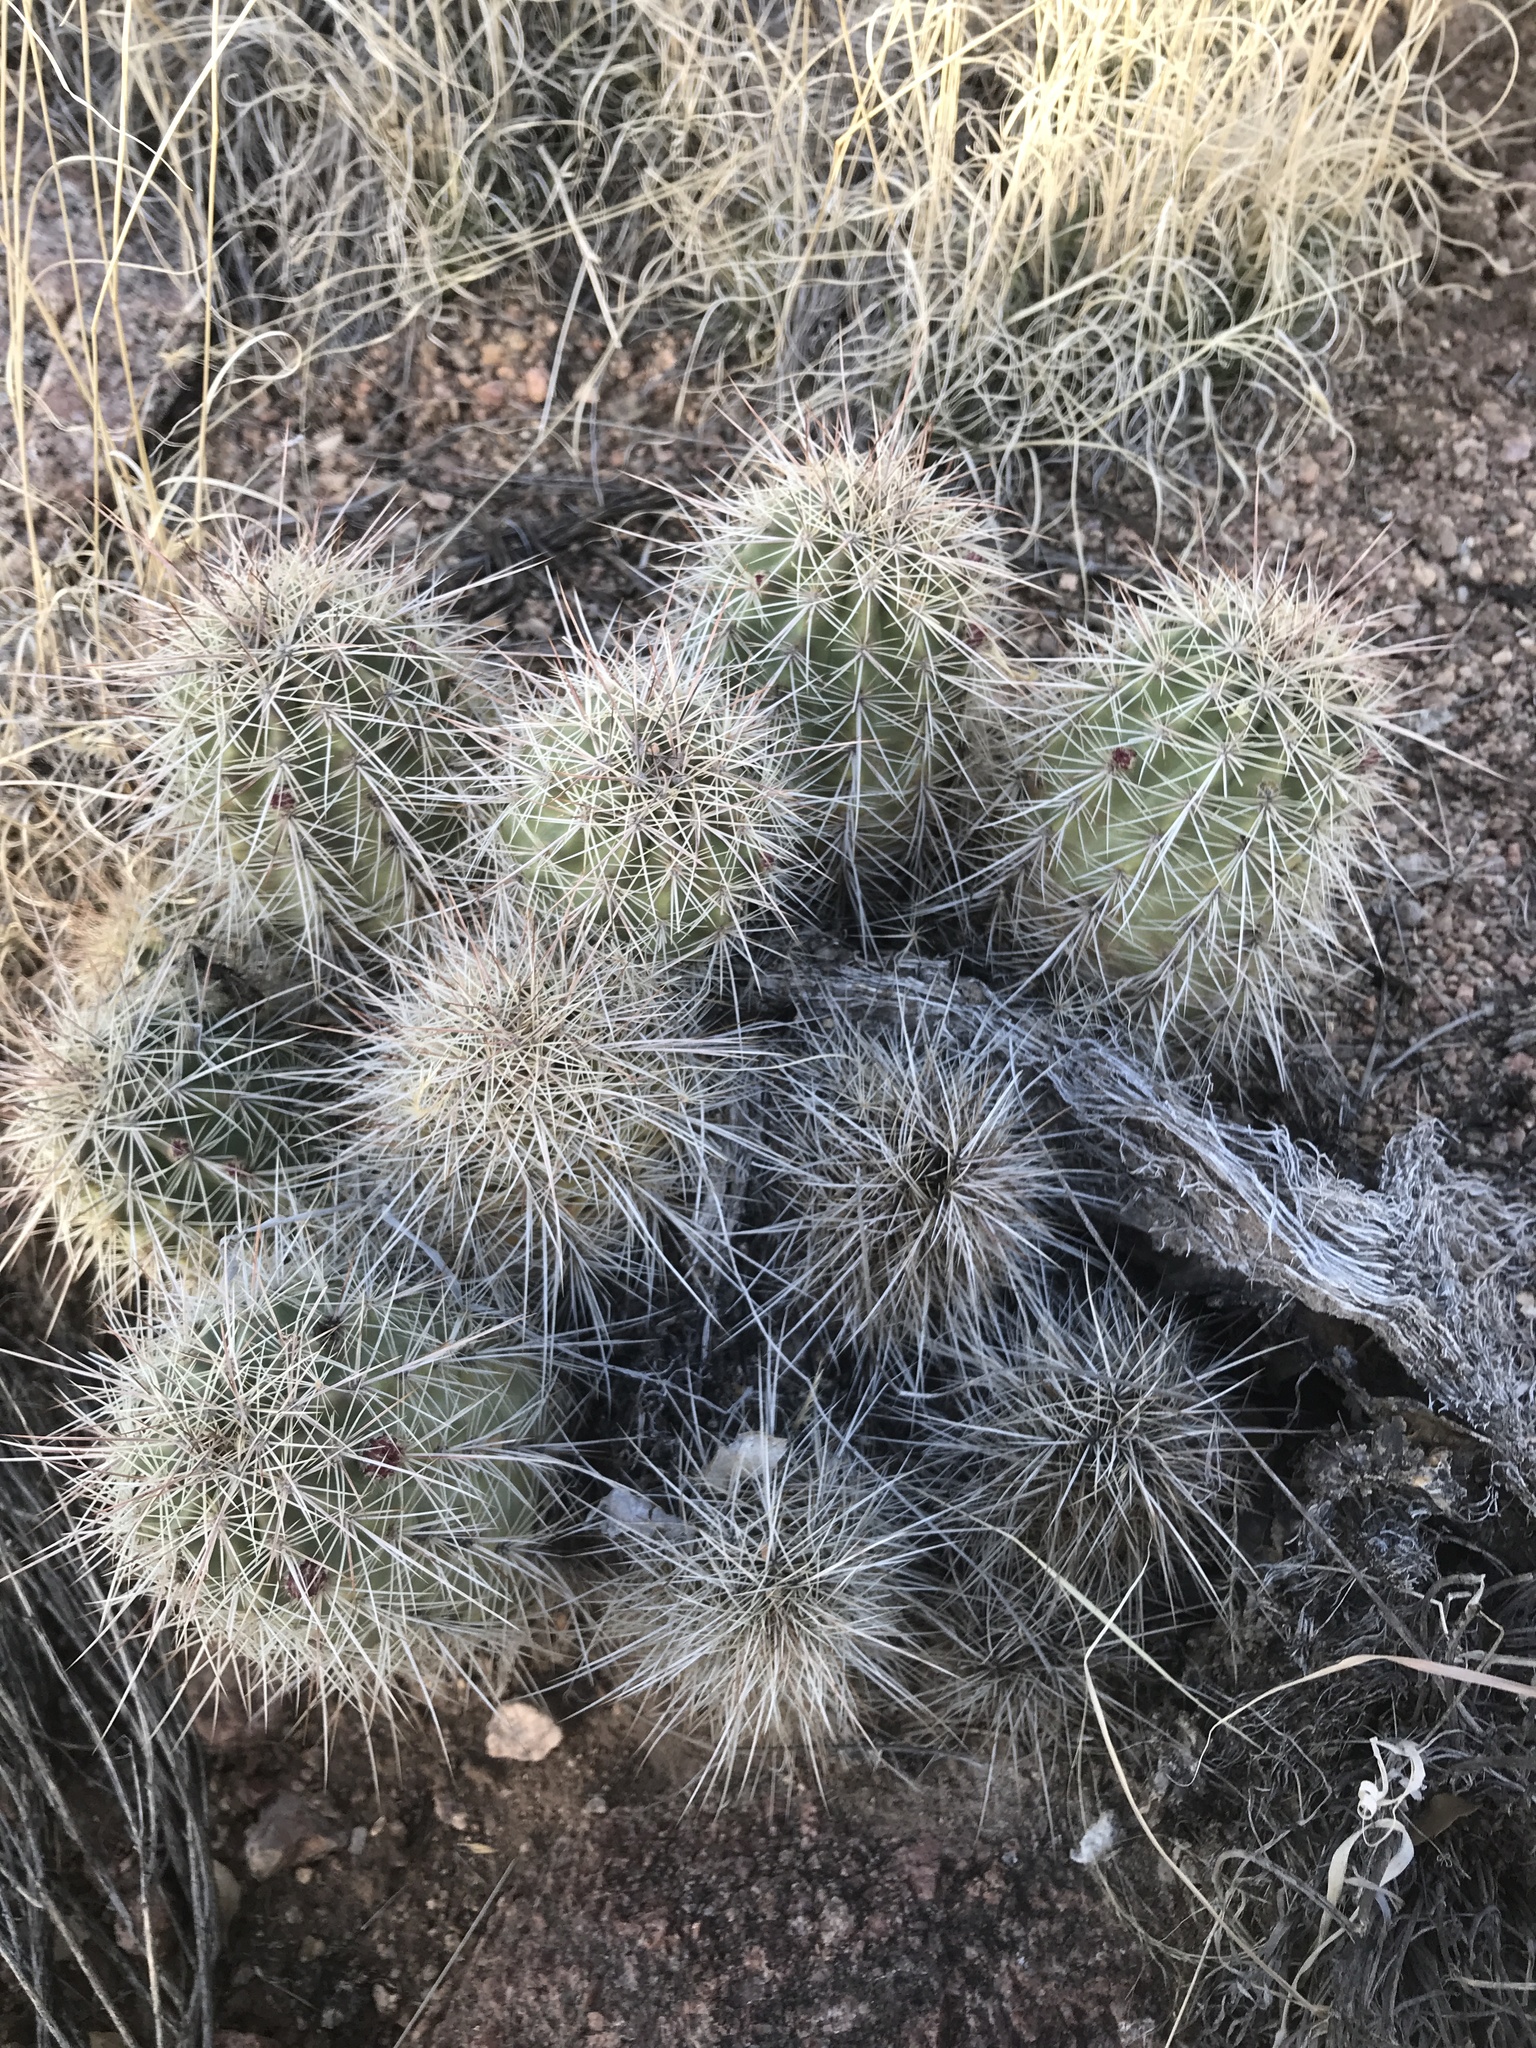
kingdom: Plantae
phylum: Tracheophyta
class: Magnoliopsida
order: Caryophyllales
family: Cactaceae
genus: Echinocereus
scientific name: Echinocereus coccineus
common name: Scarlet hedgehog cactus
